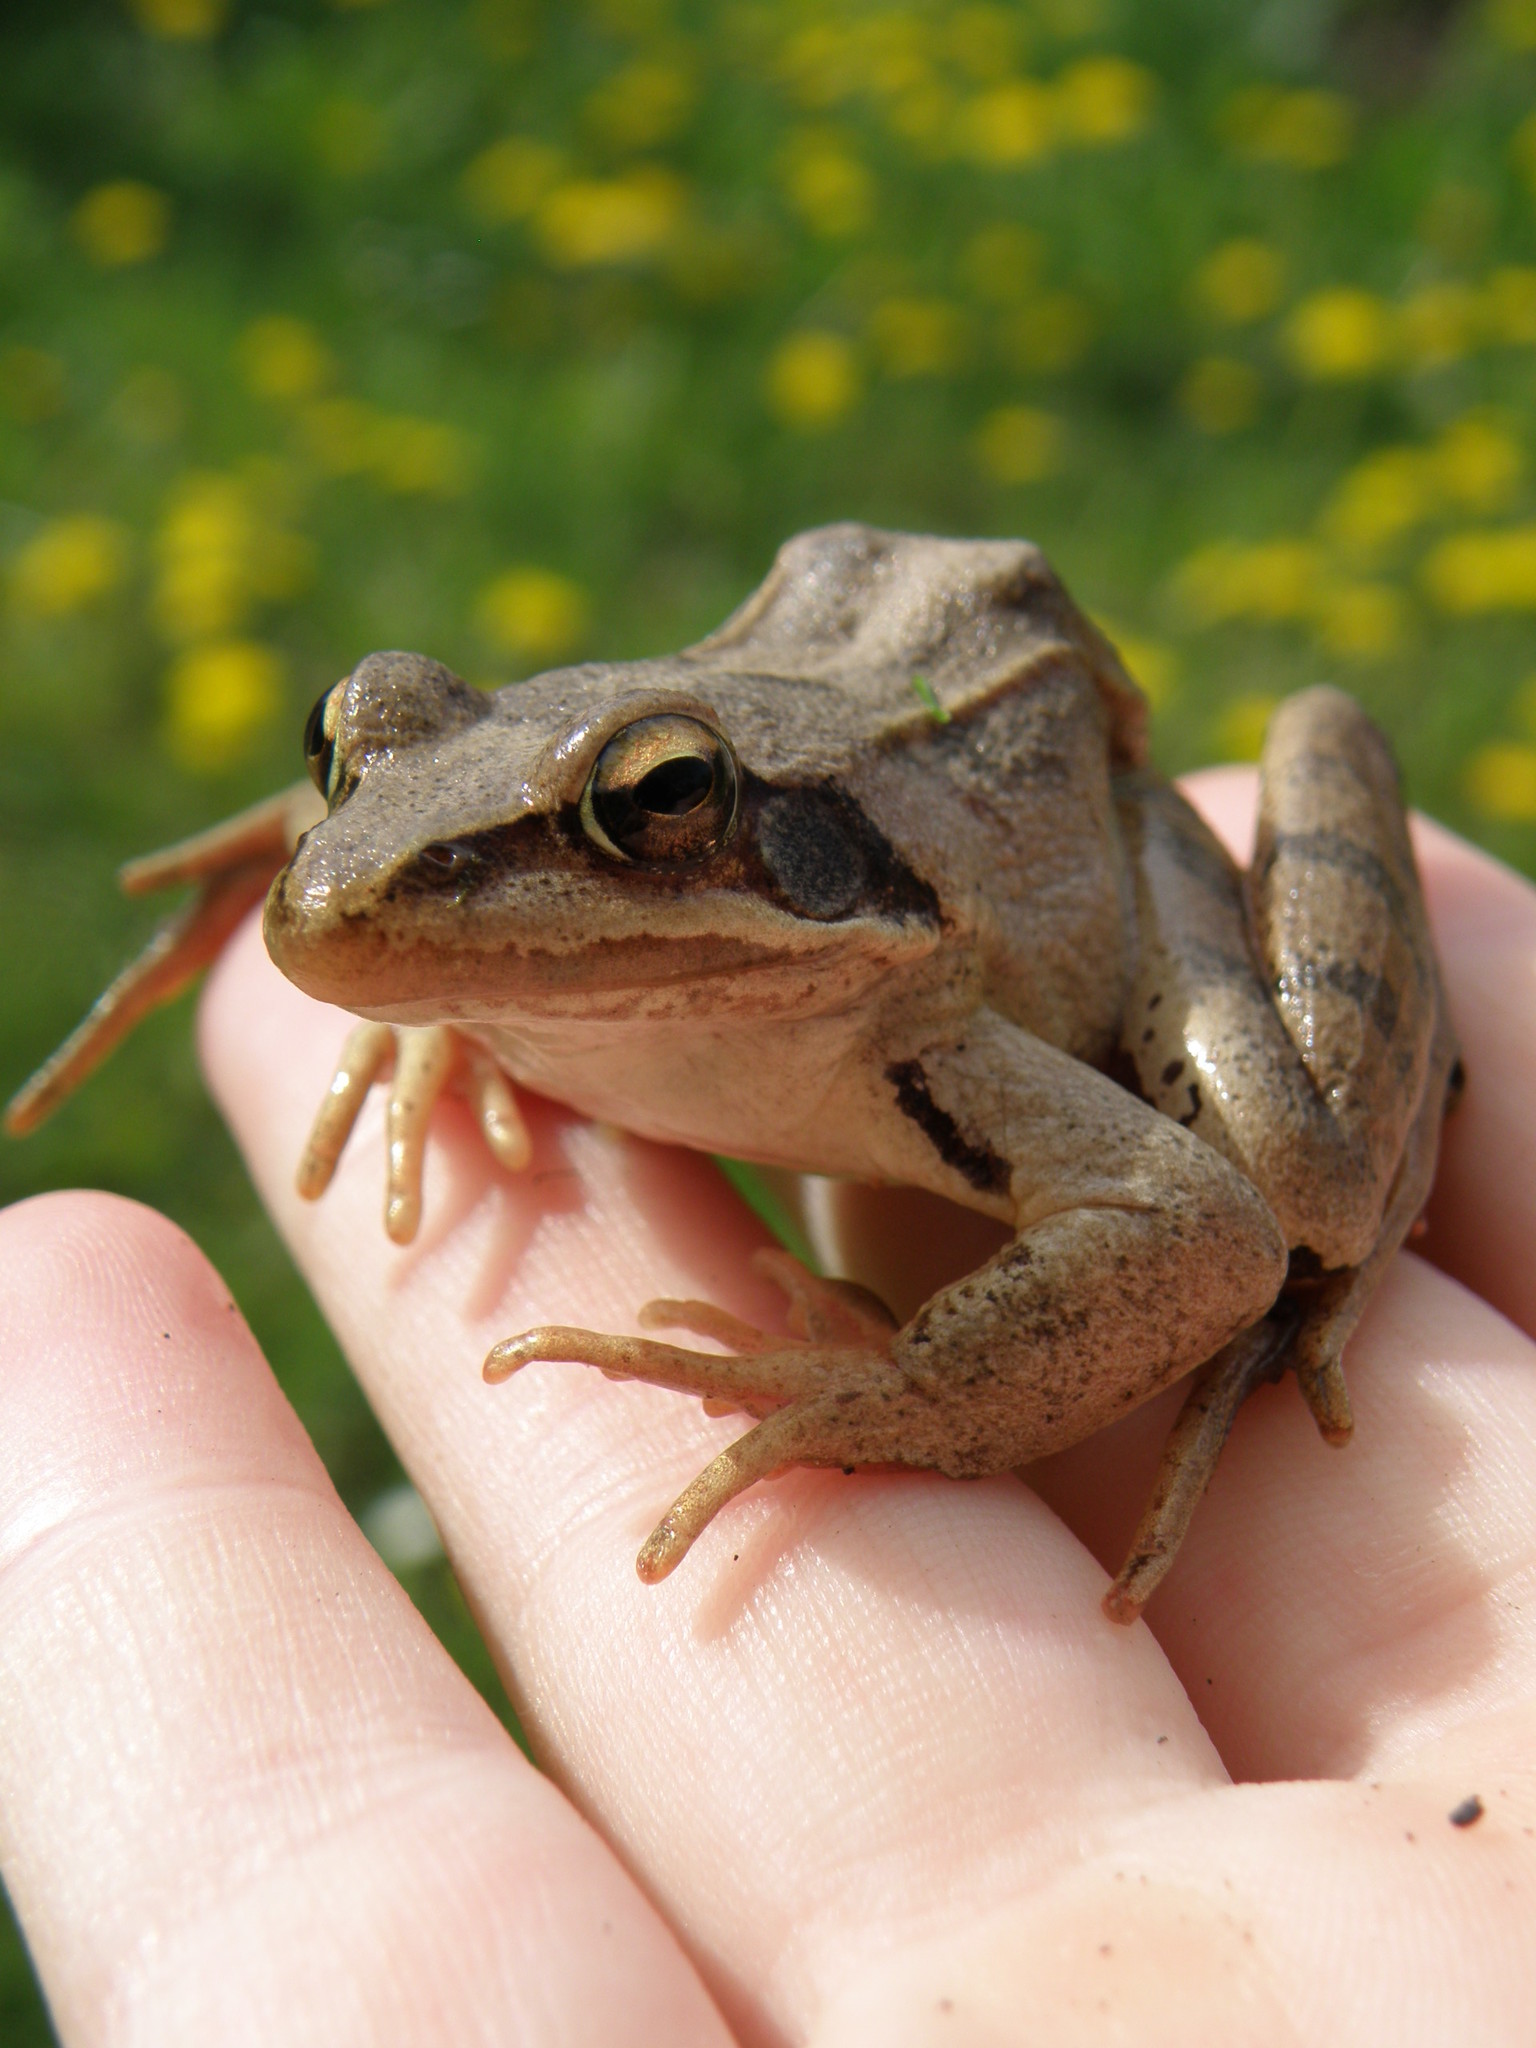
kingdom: Animalia
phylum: Chordata
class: Amphibia
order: Anura
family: Ranidae
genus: Rana
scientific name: Rana dalmatina
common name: Agile frog
